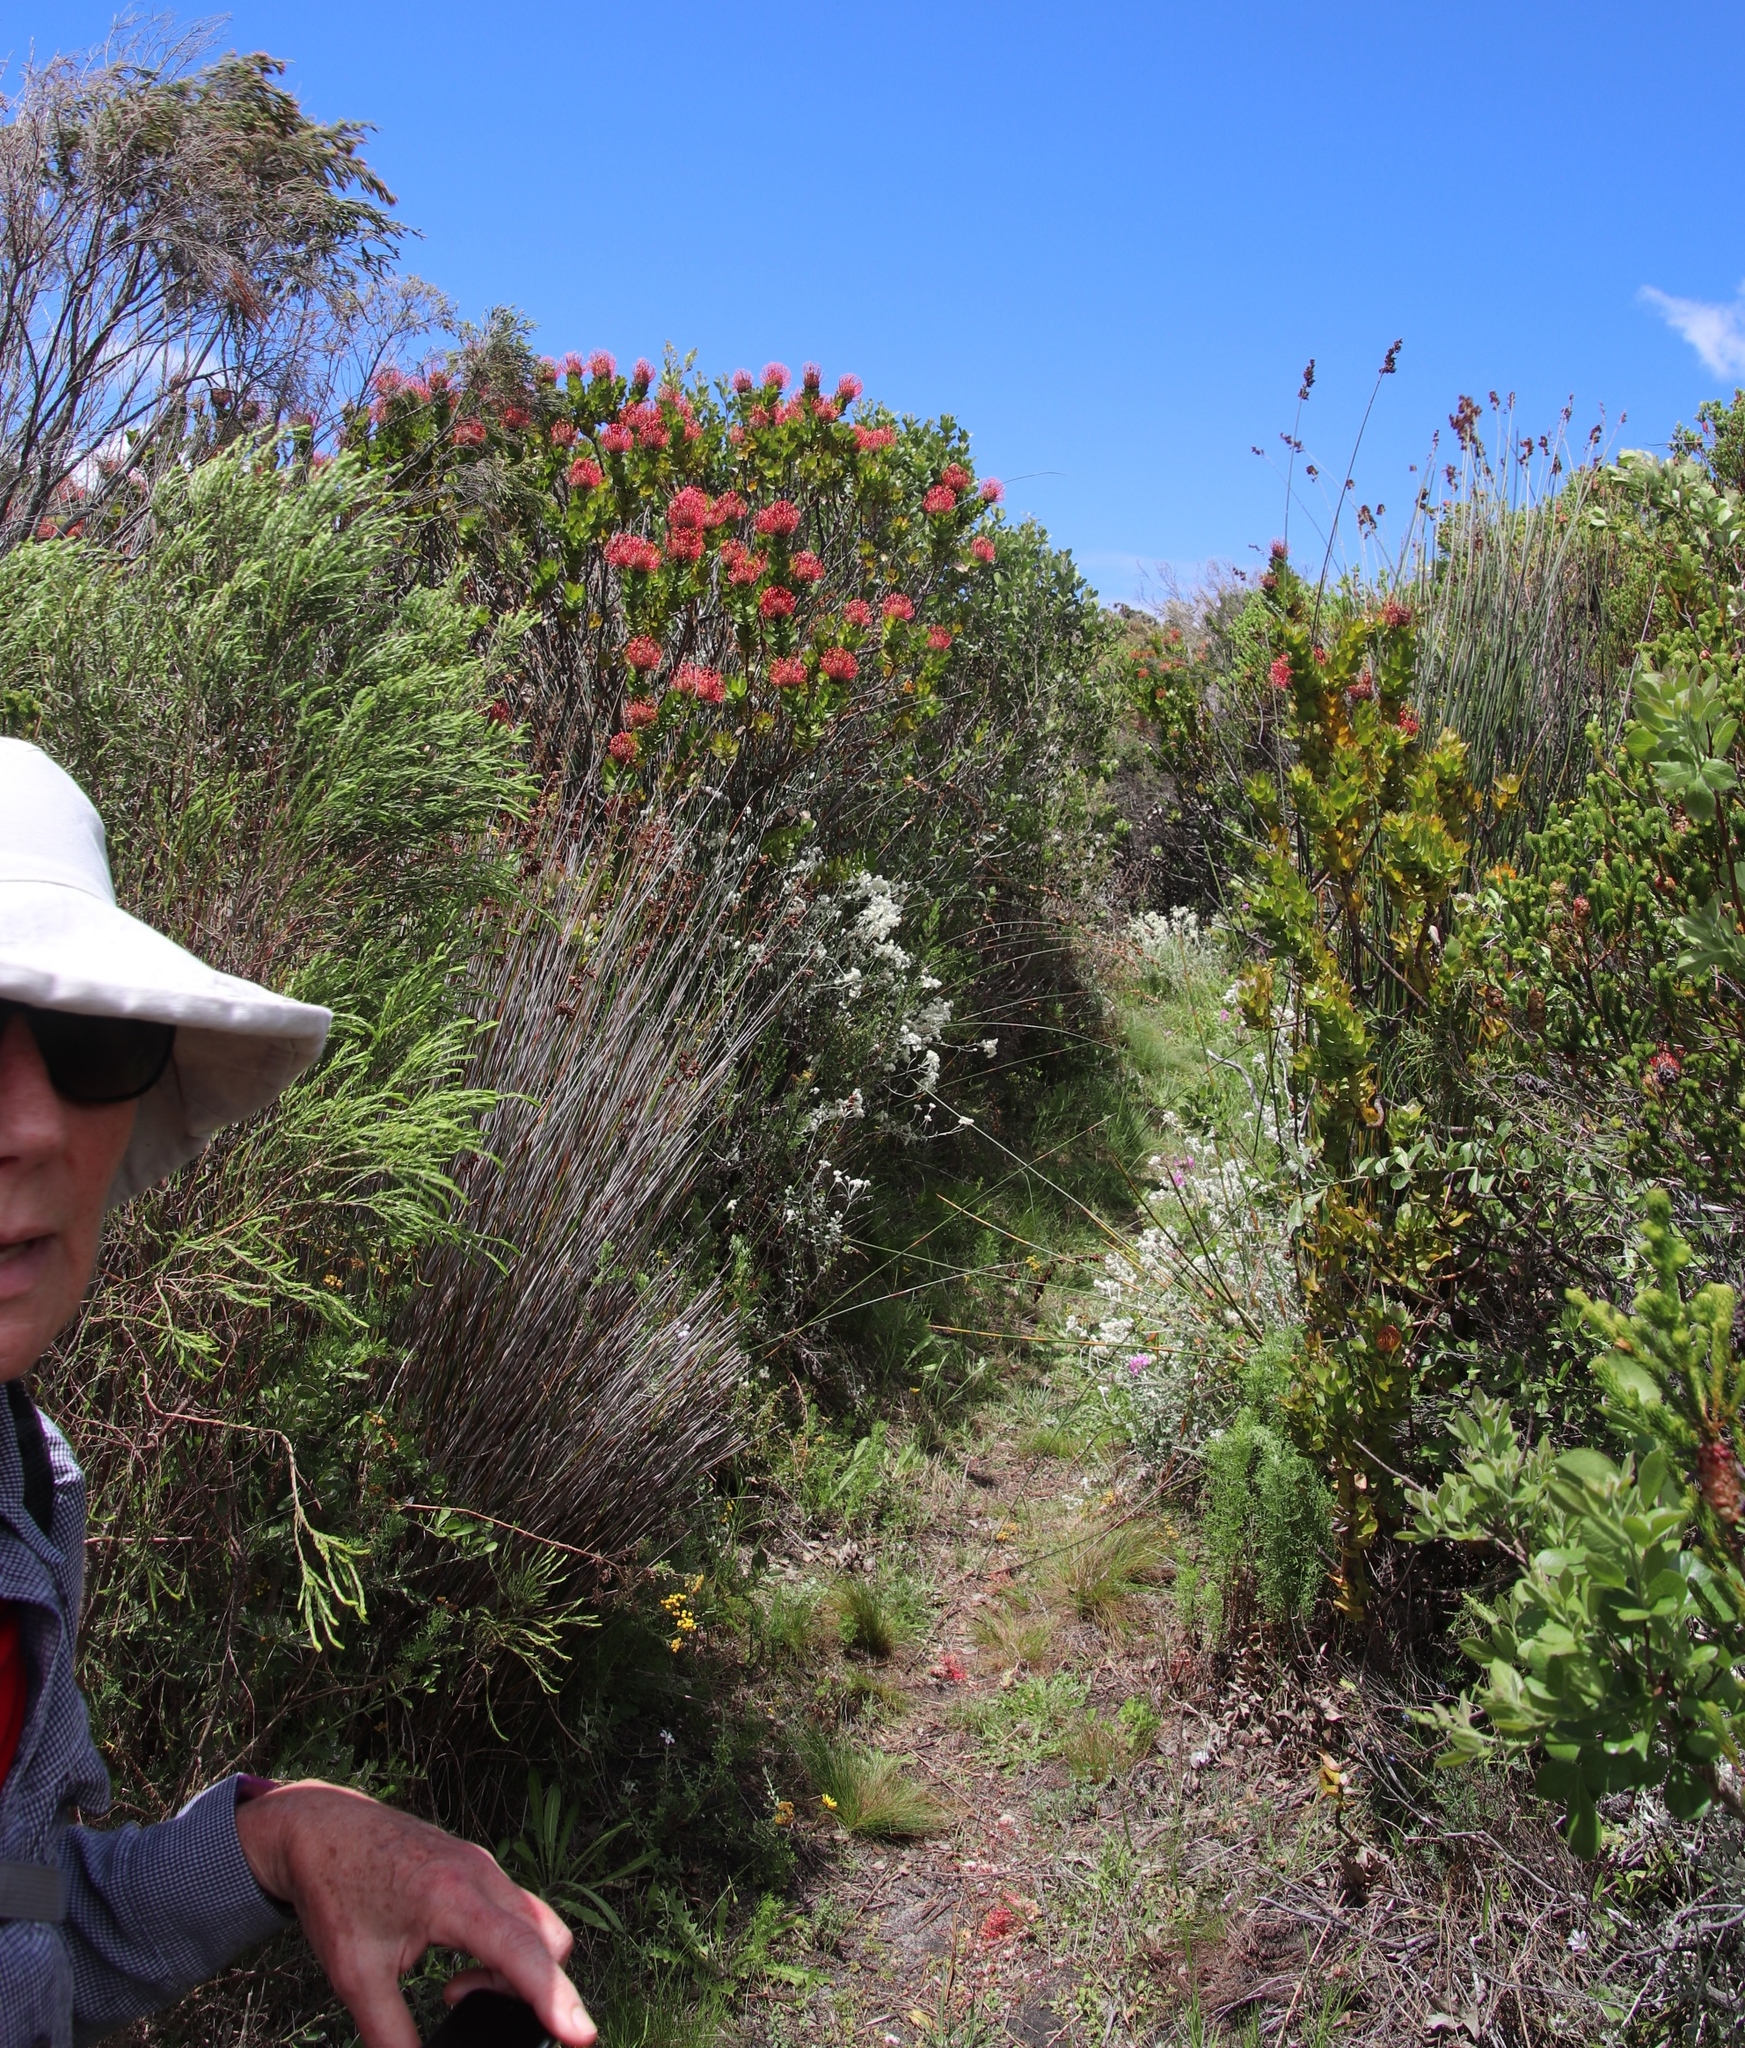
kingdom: Plantae
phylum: Tracheophyta
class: Magnoliopsida
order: Proteales
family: Proteaceae
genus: Leucospermum
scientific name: Leucospermum patersonii
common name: False tree pincushion
